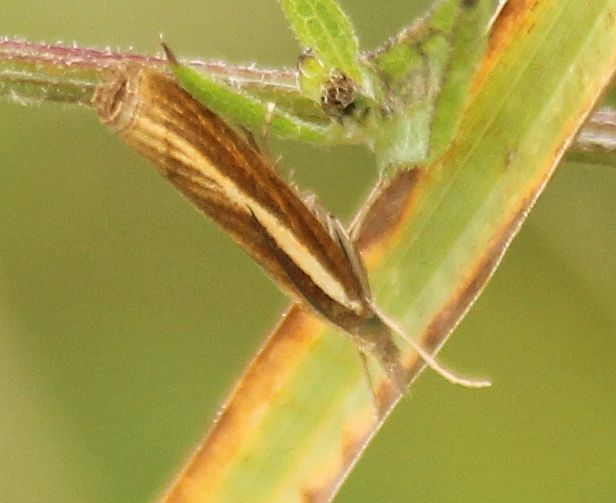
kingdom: Animalia
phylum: Arthropoda
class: Insecta
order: Lepidoptera
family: Crambidae
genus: Agriphila
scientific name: Agriphila tristellus
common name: Common grass-veneer
